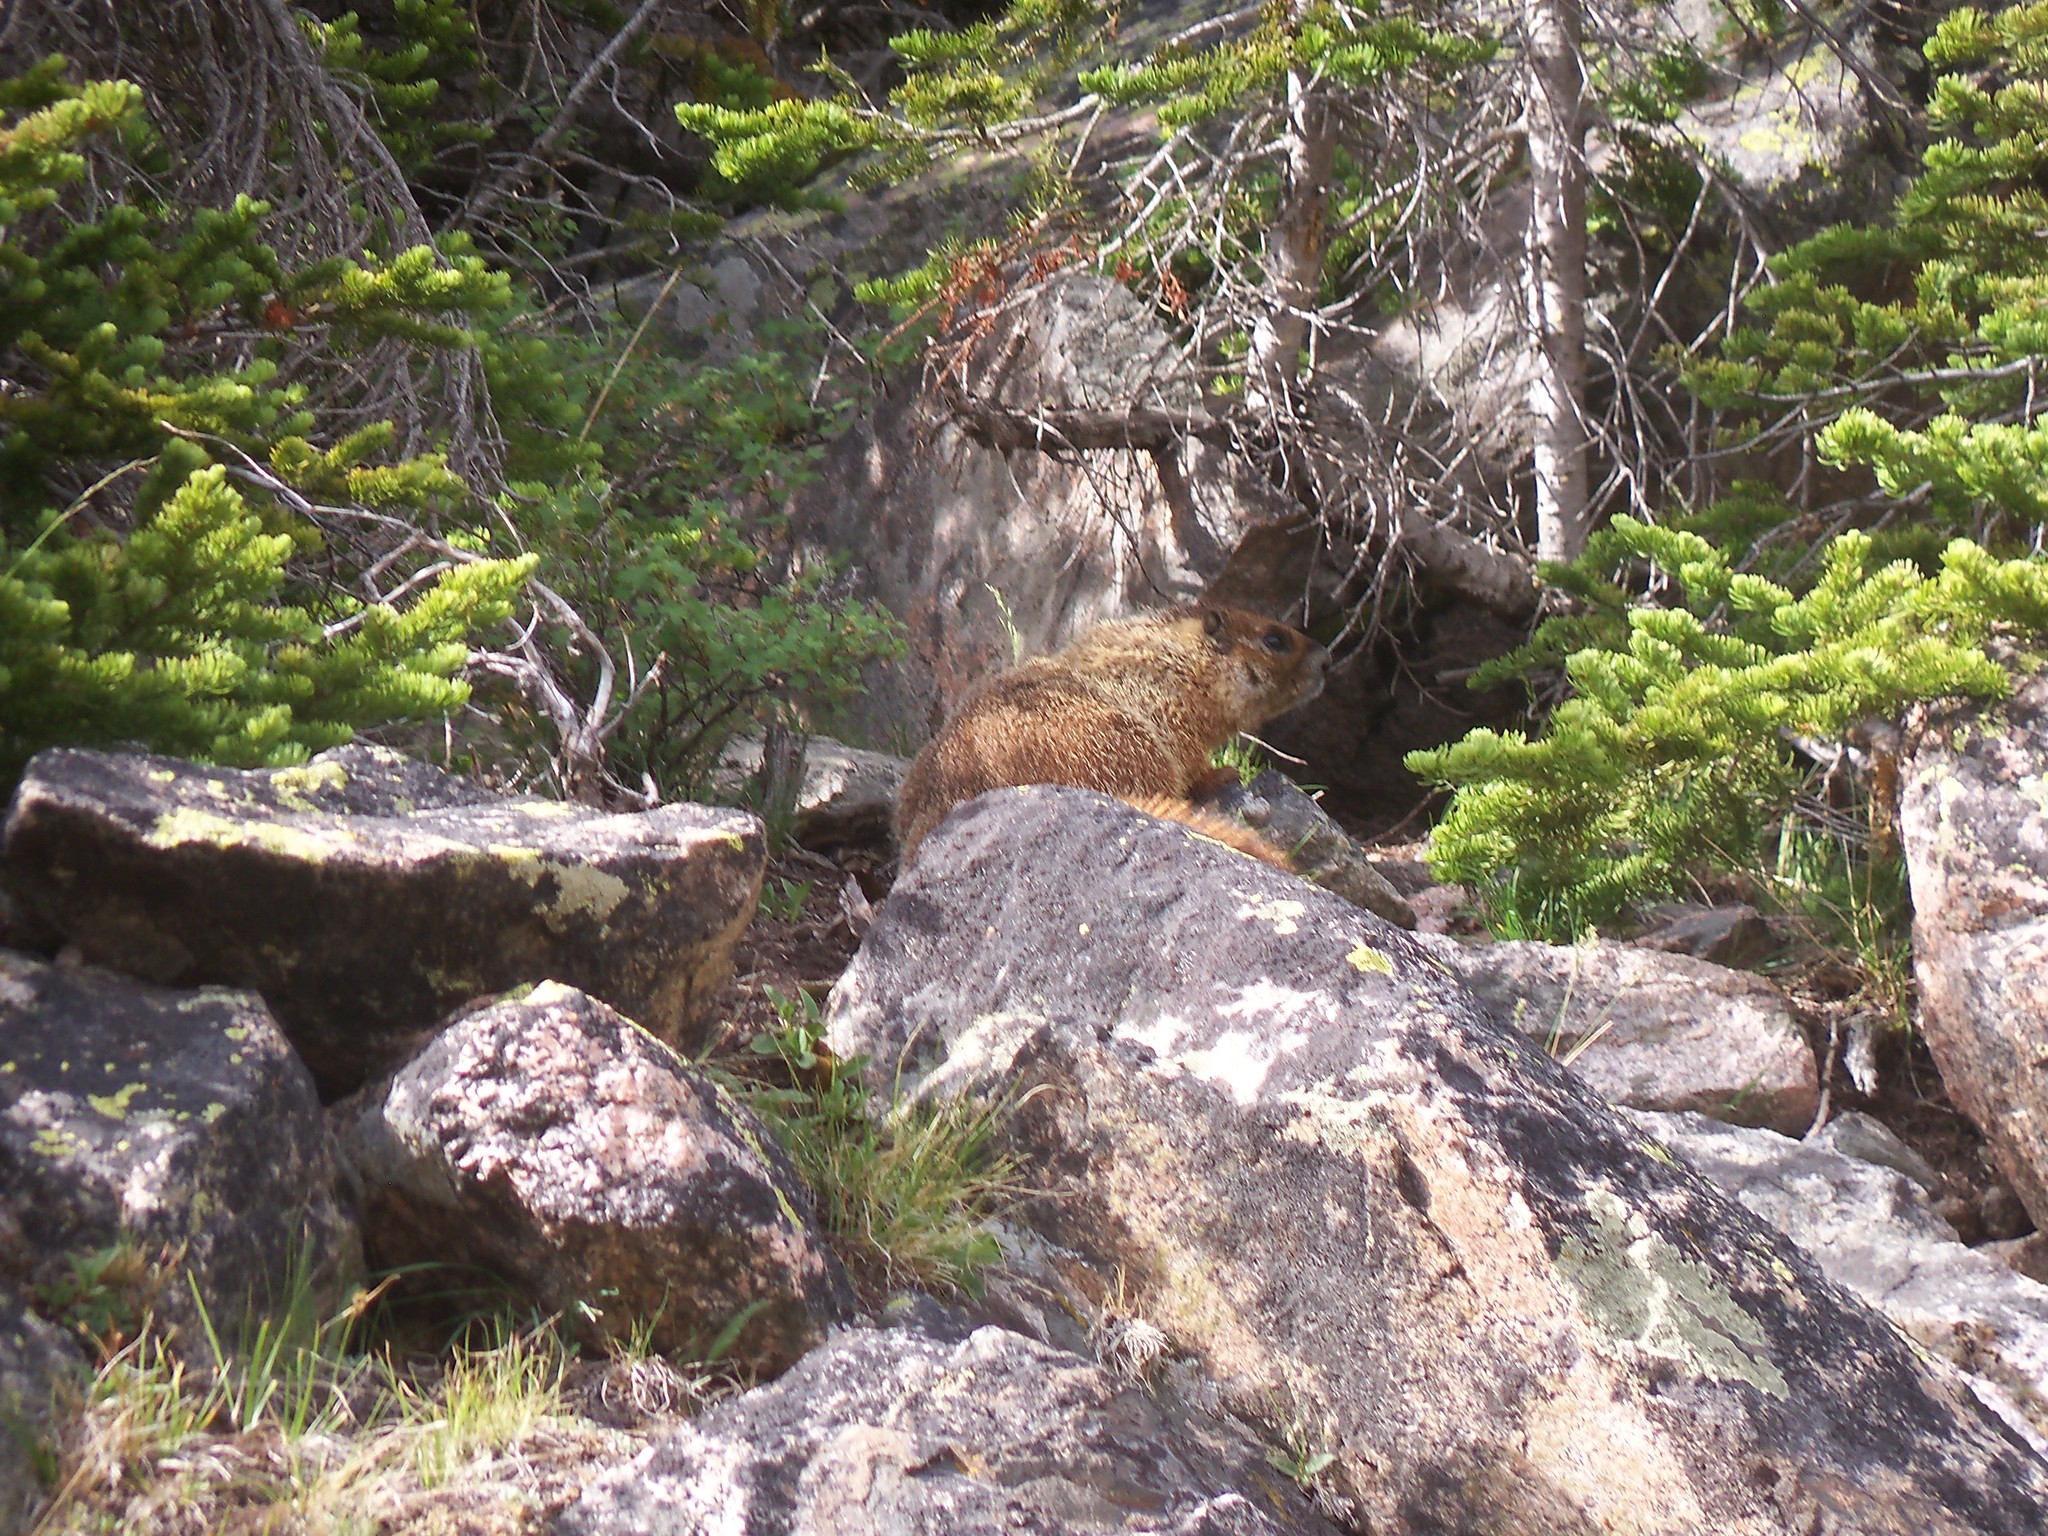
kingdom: Animalia
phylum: Chordata
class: Mammalia
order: Rodentia
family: Sciuridae
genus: Marmota
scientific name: Marmota flaviventris
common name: Yellow-bellied marmot
